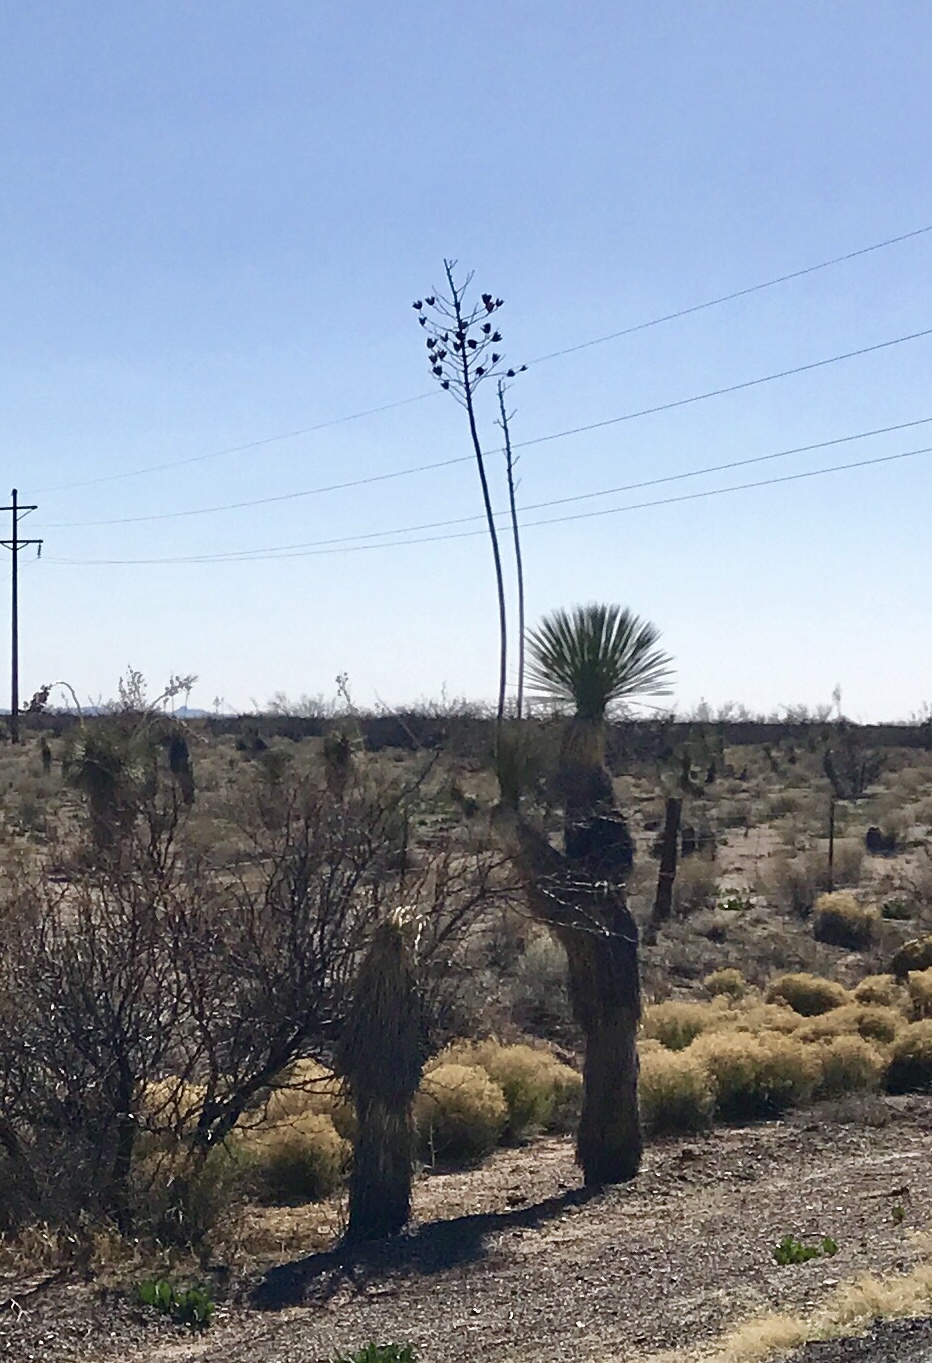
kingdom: Plantae
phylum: Tracheophyta
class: Liliopsida
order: Asparagales
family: Asparagaceae
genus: Yucca
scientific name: Yucca elata
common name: Palmella
